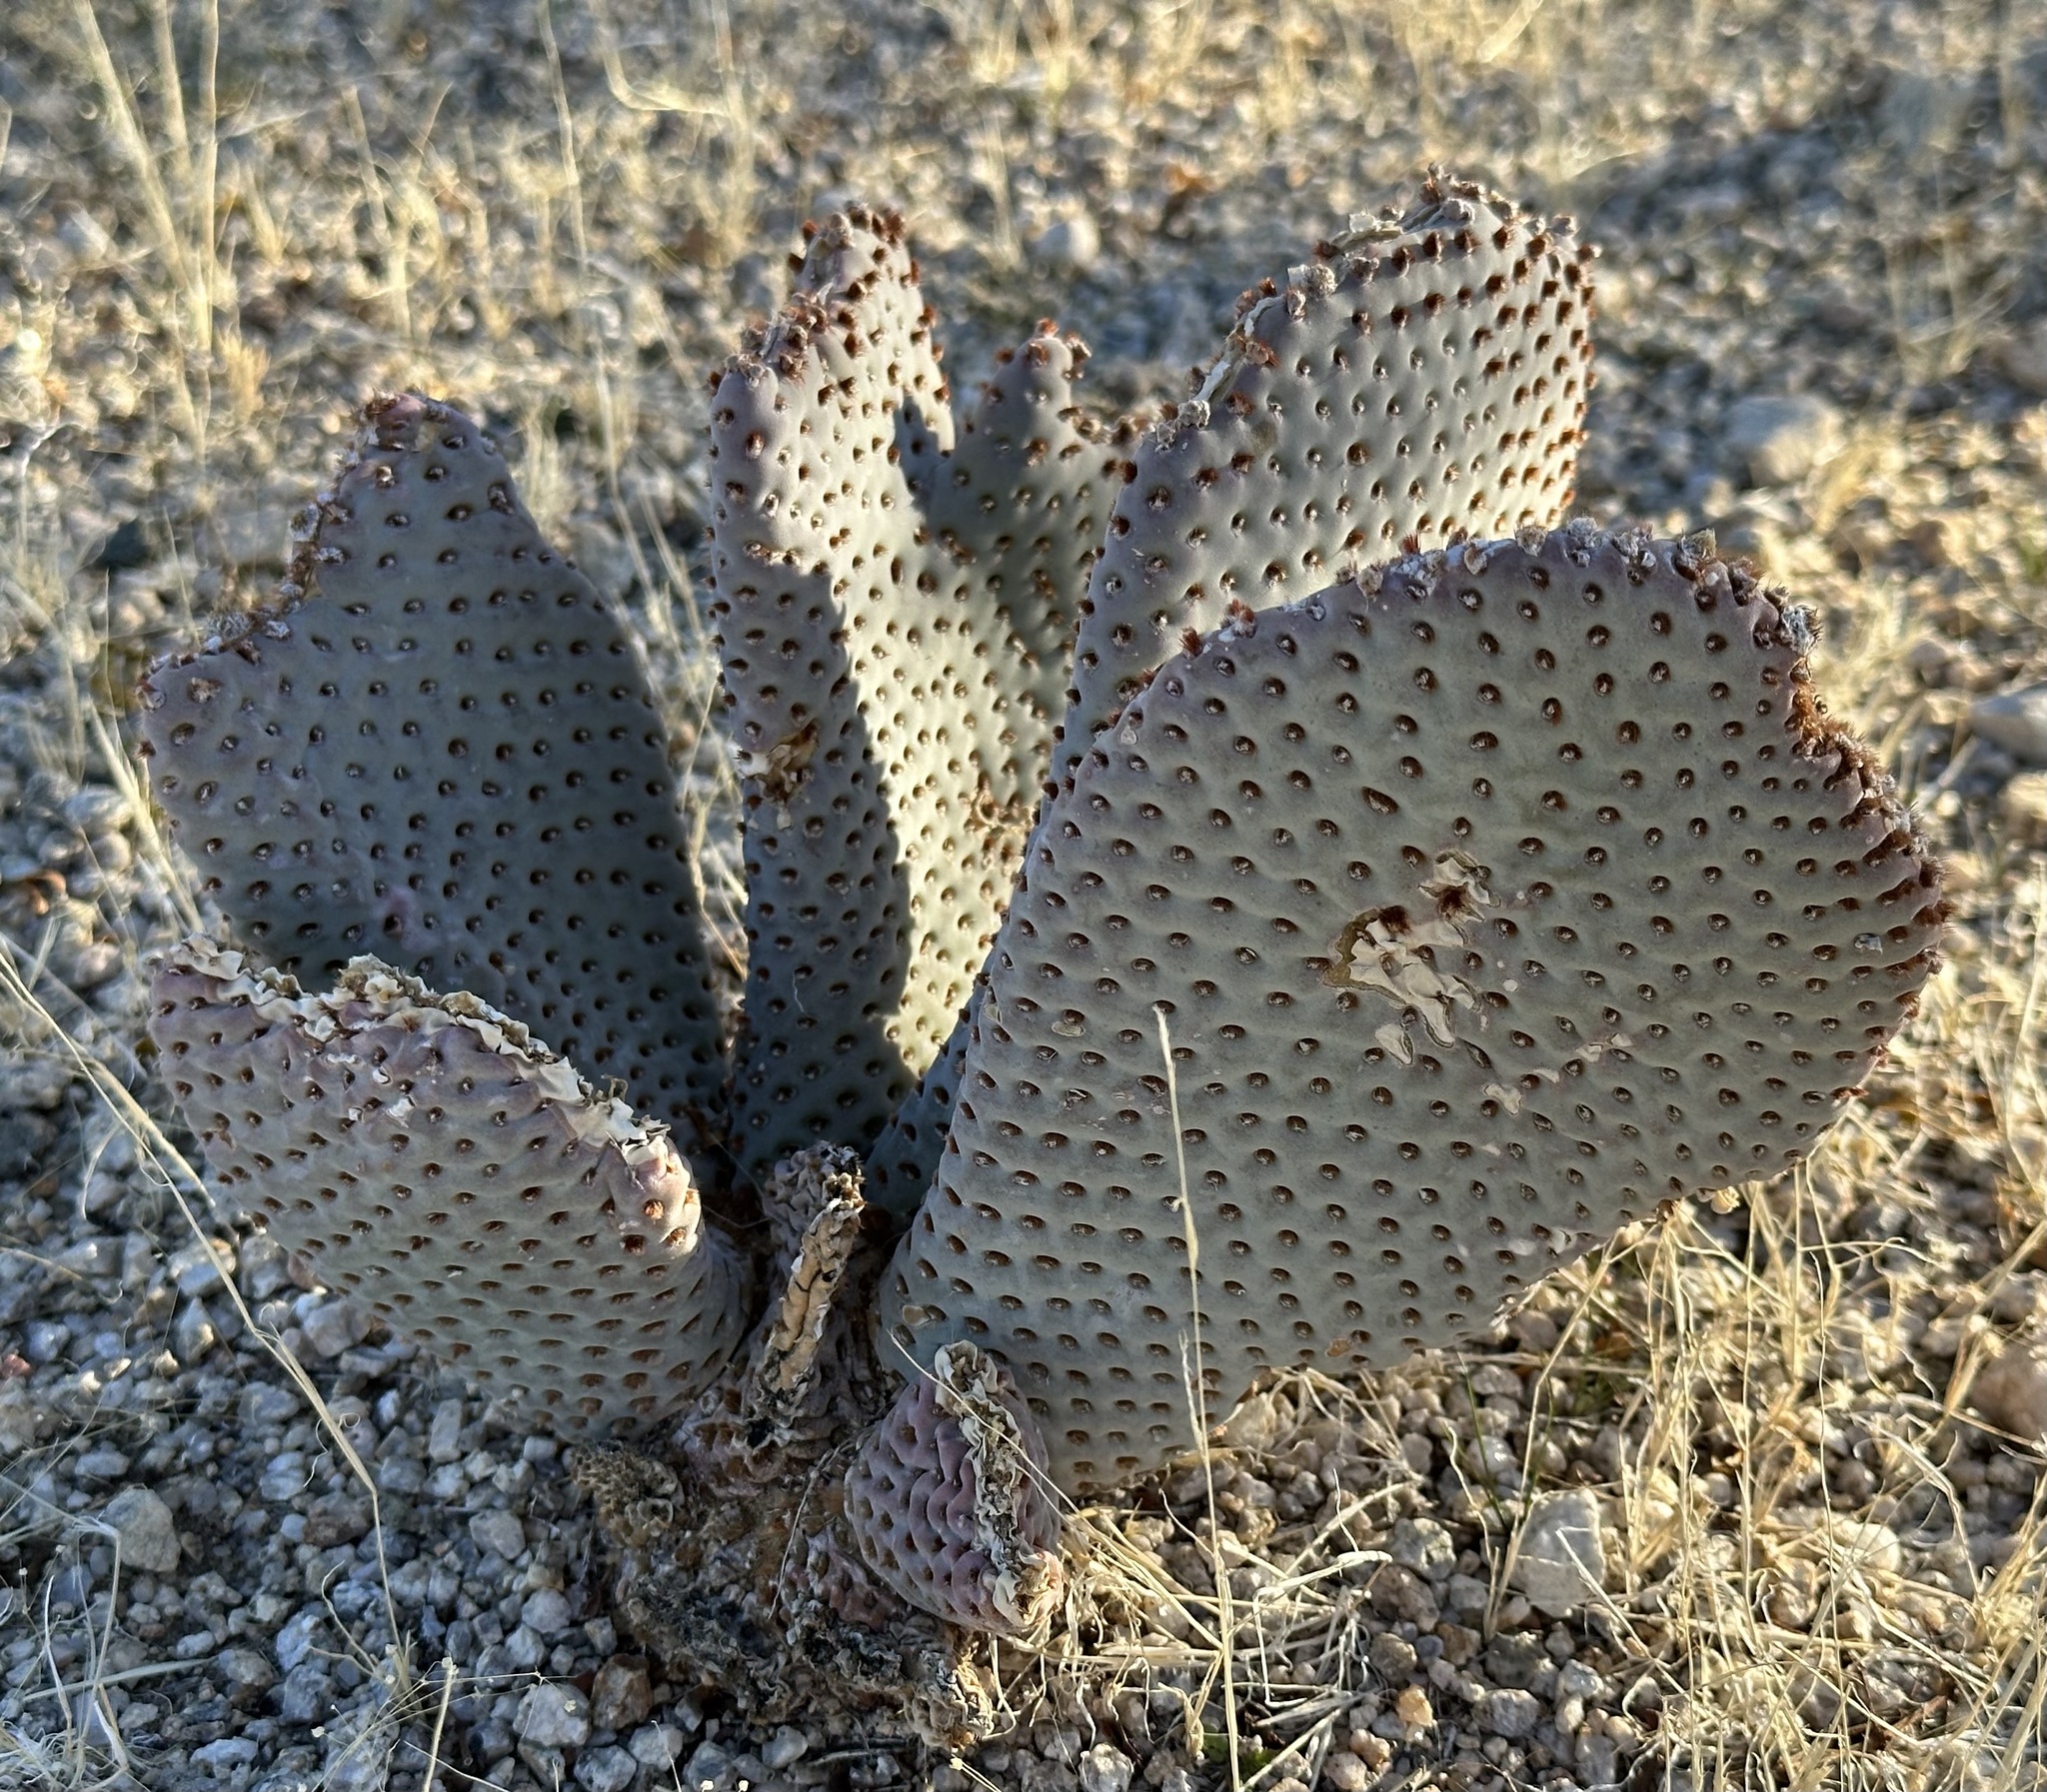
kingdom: Plantae
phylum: Tracheophyta
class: Magnoliopsida
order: Caryophyllales
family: Cactaceae
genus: Opuntia
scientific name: Opuntia basilaris
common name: Beavertail prickly-pear
